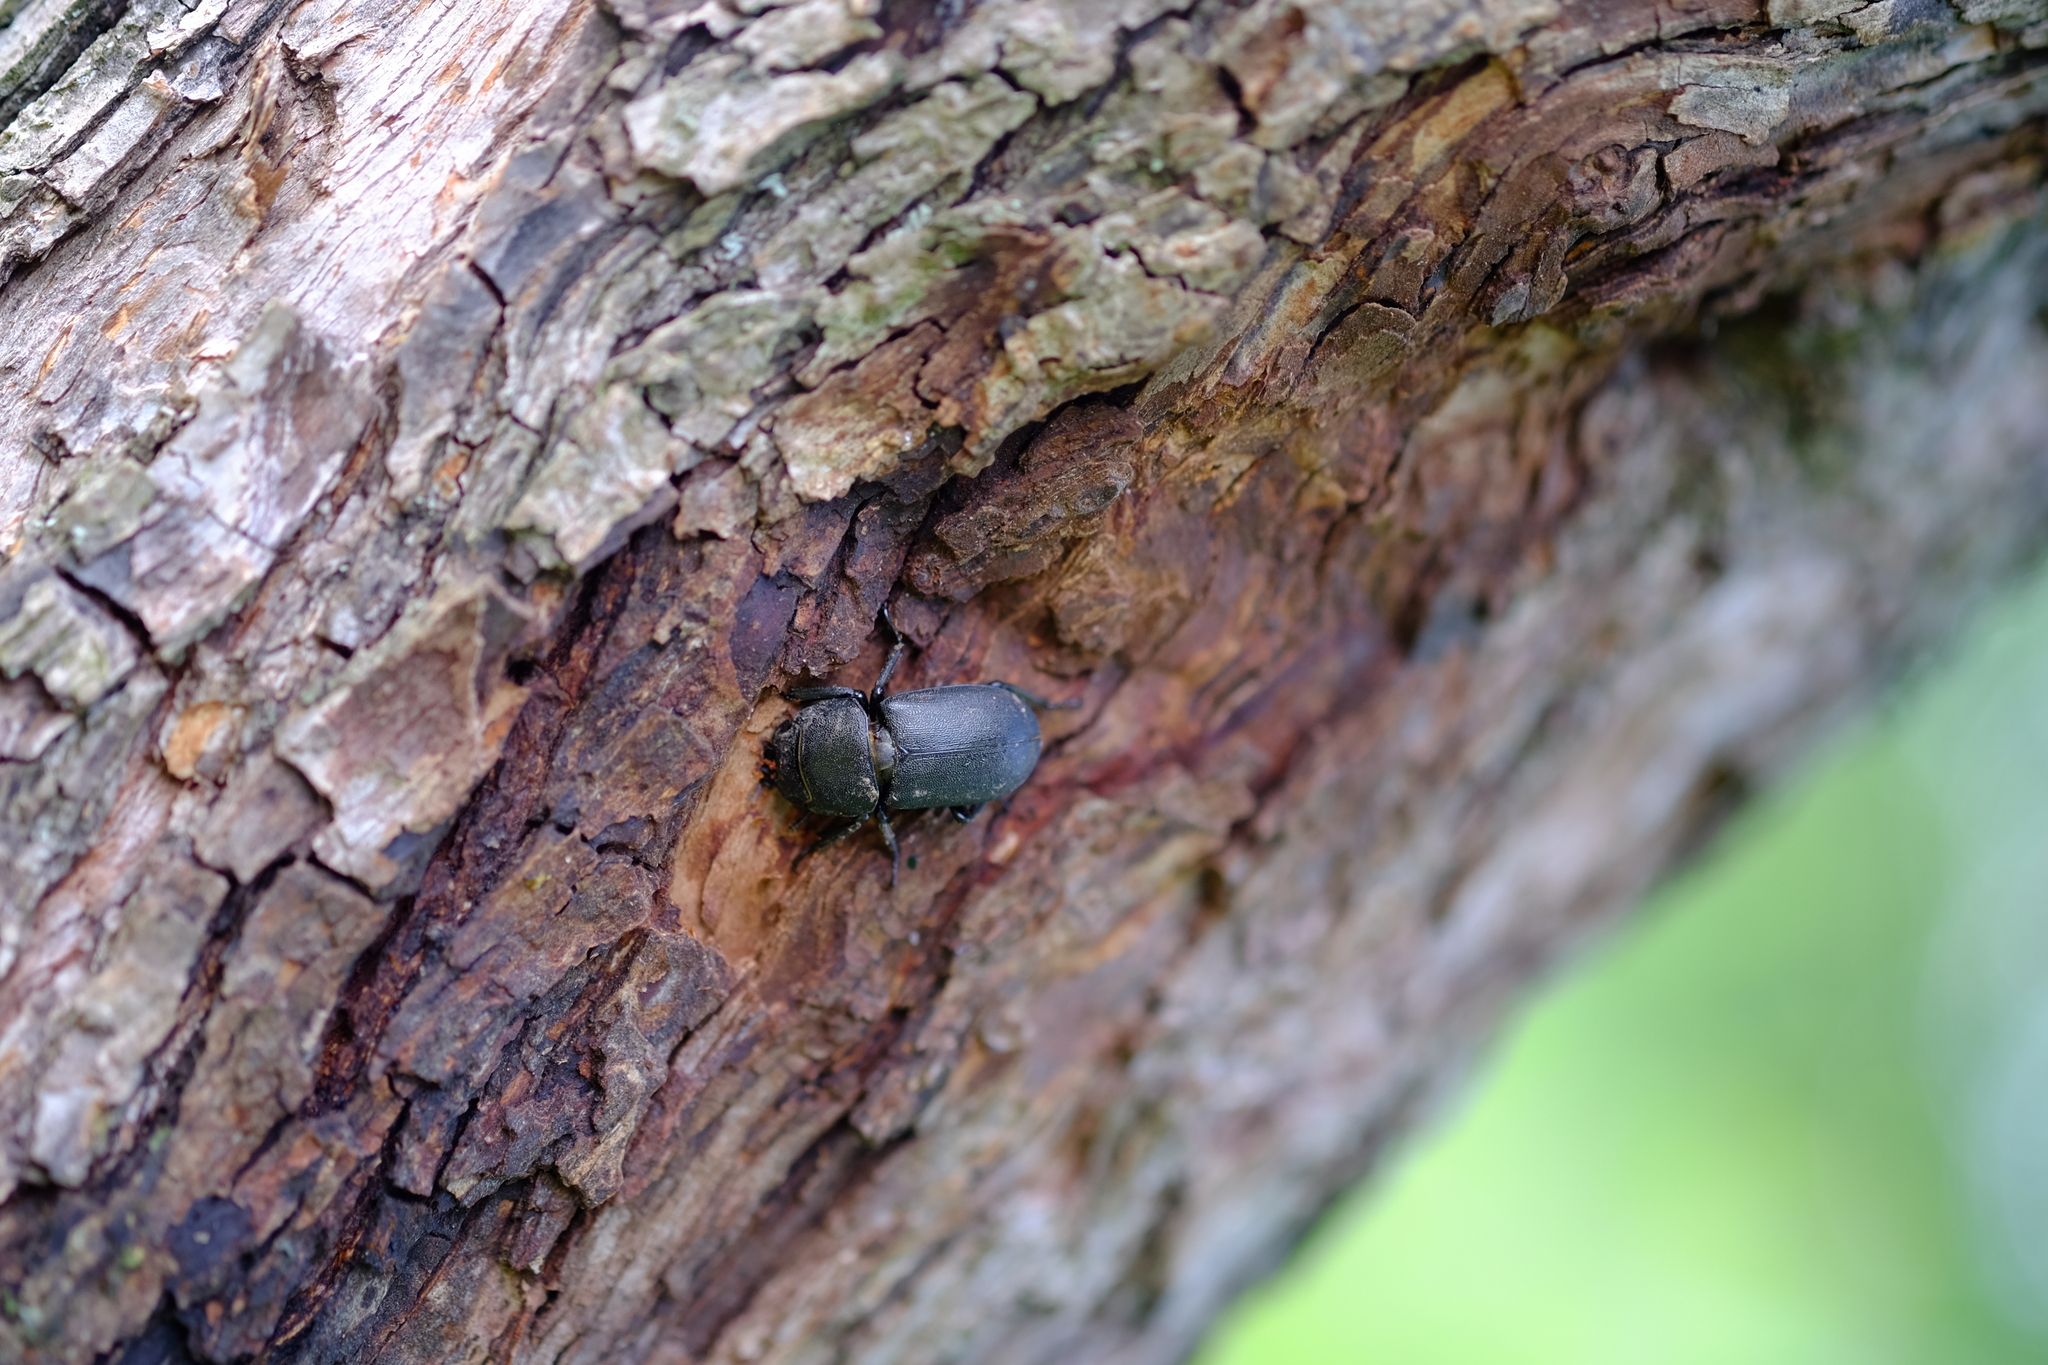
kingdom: Animalia
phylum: Arthropoda
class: Insecta
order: Coleoptera
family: Lucanidae
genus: Dorcus
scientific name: Dorcus parallelipipedus
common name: Lesser stag beetle
